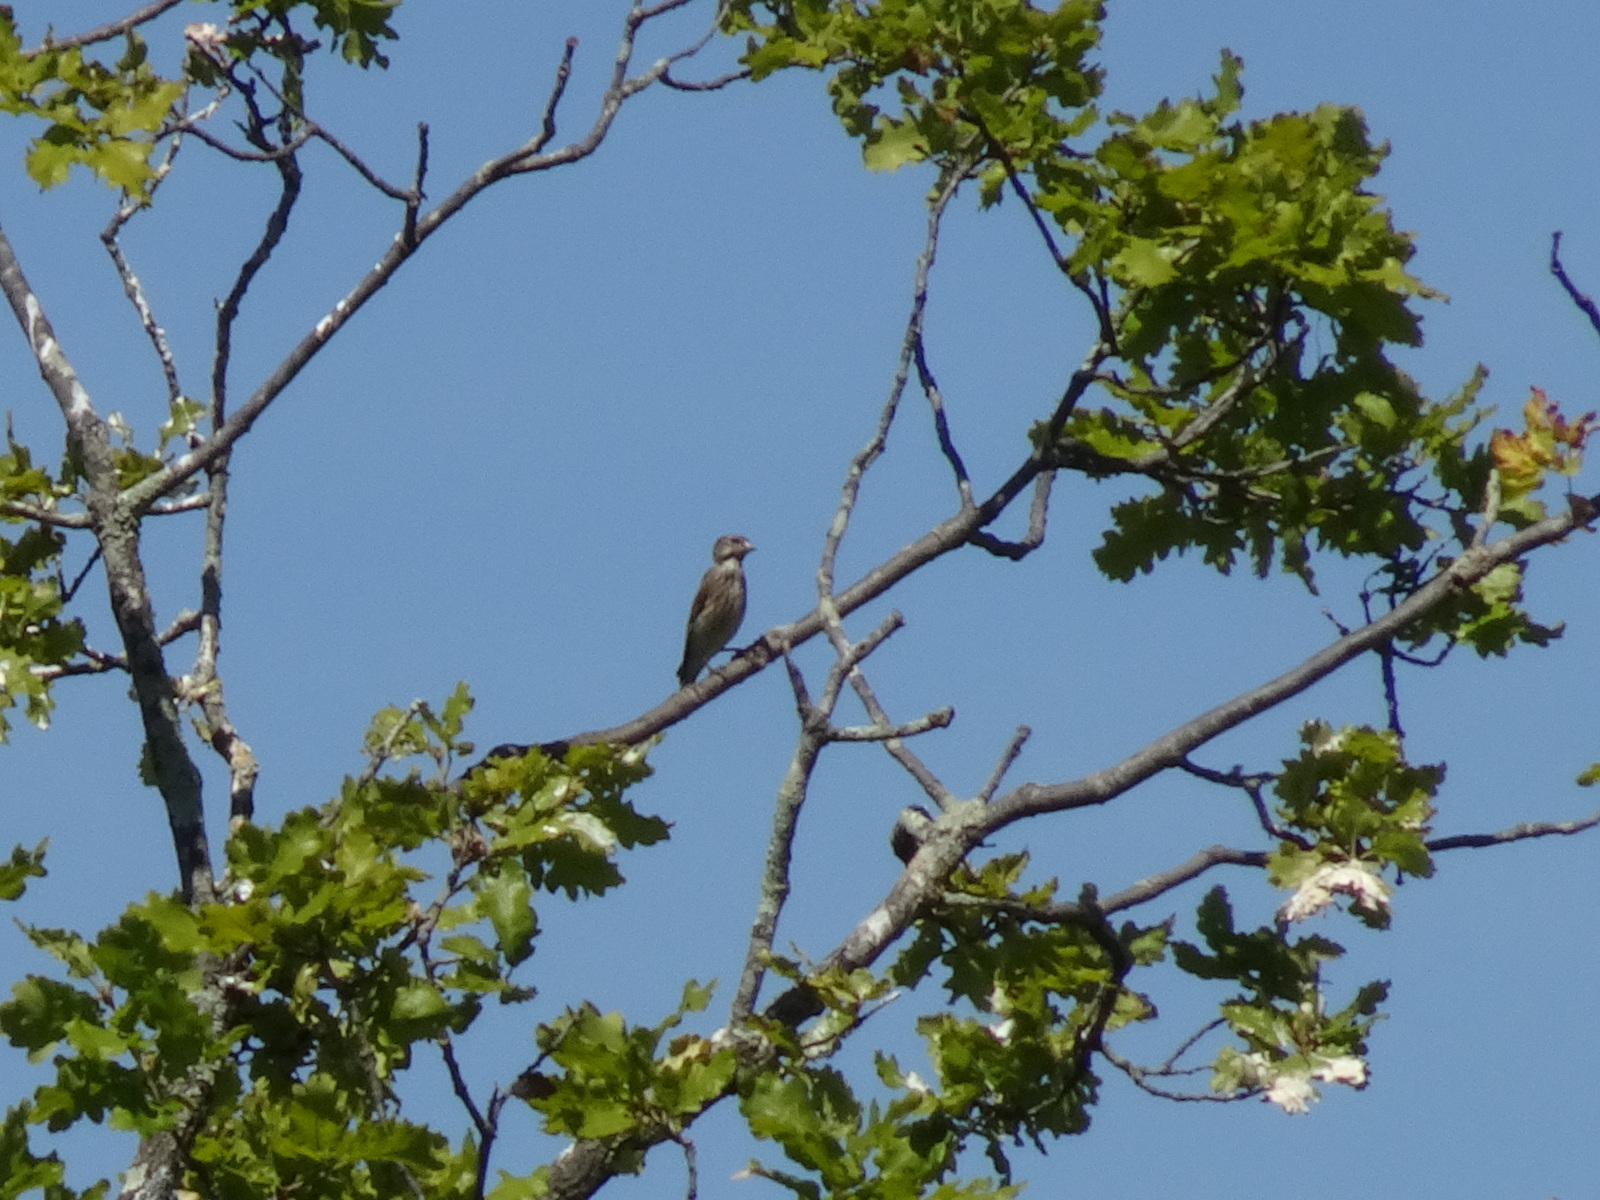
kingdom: Animalia
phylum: Chordata
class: Aves
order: Passeriformes
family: Fringillidae
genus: Linaria
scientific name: Linaria cannabina
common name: Common linnet
